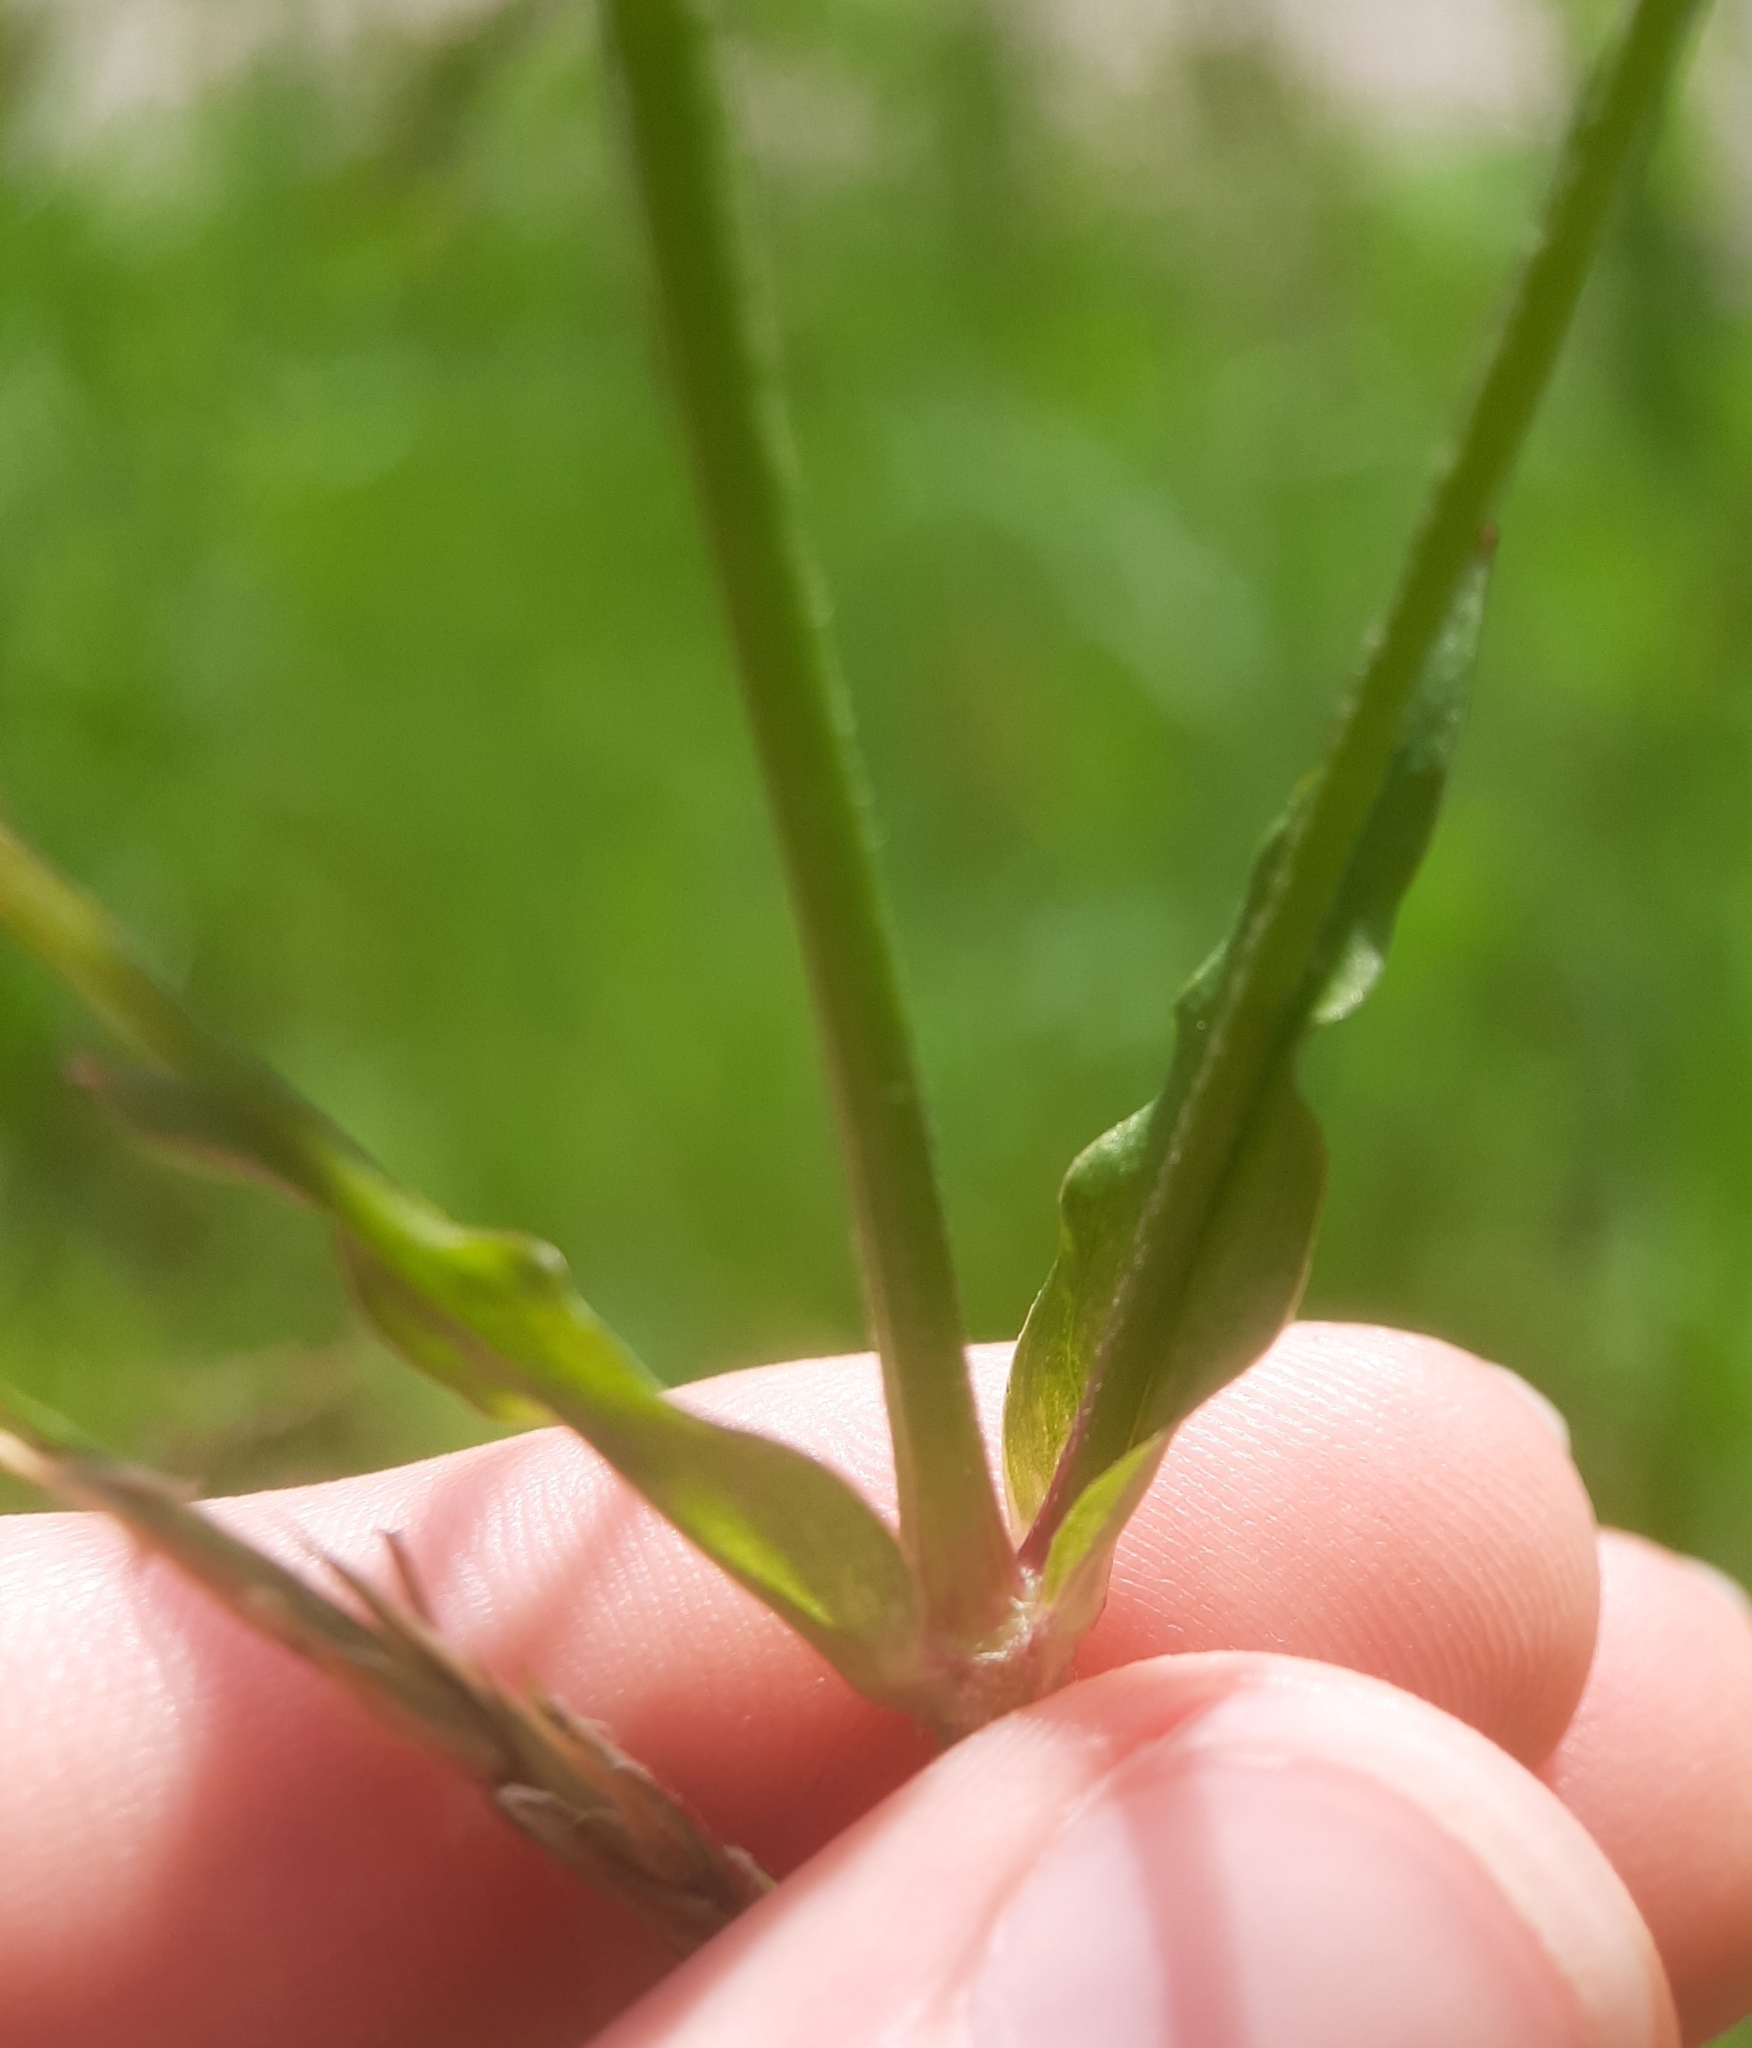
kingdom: Plantae
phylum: Tracheophyta
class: Magnoliopsida
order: Caryophyllales
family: Caryophyllaceae
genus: Silene
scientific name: Silene flos-cuculi
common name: Ragged-robin
